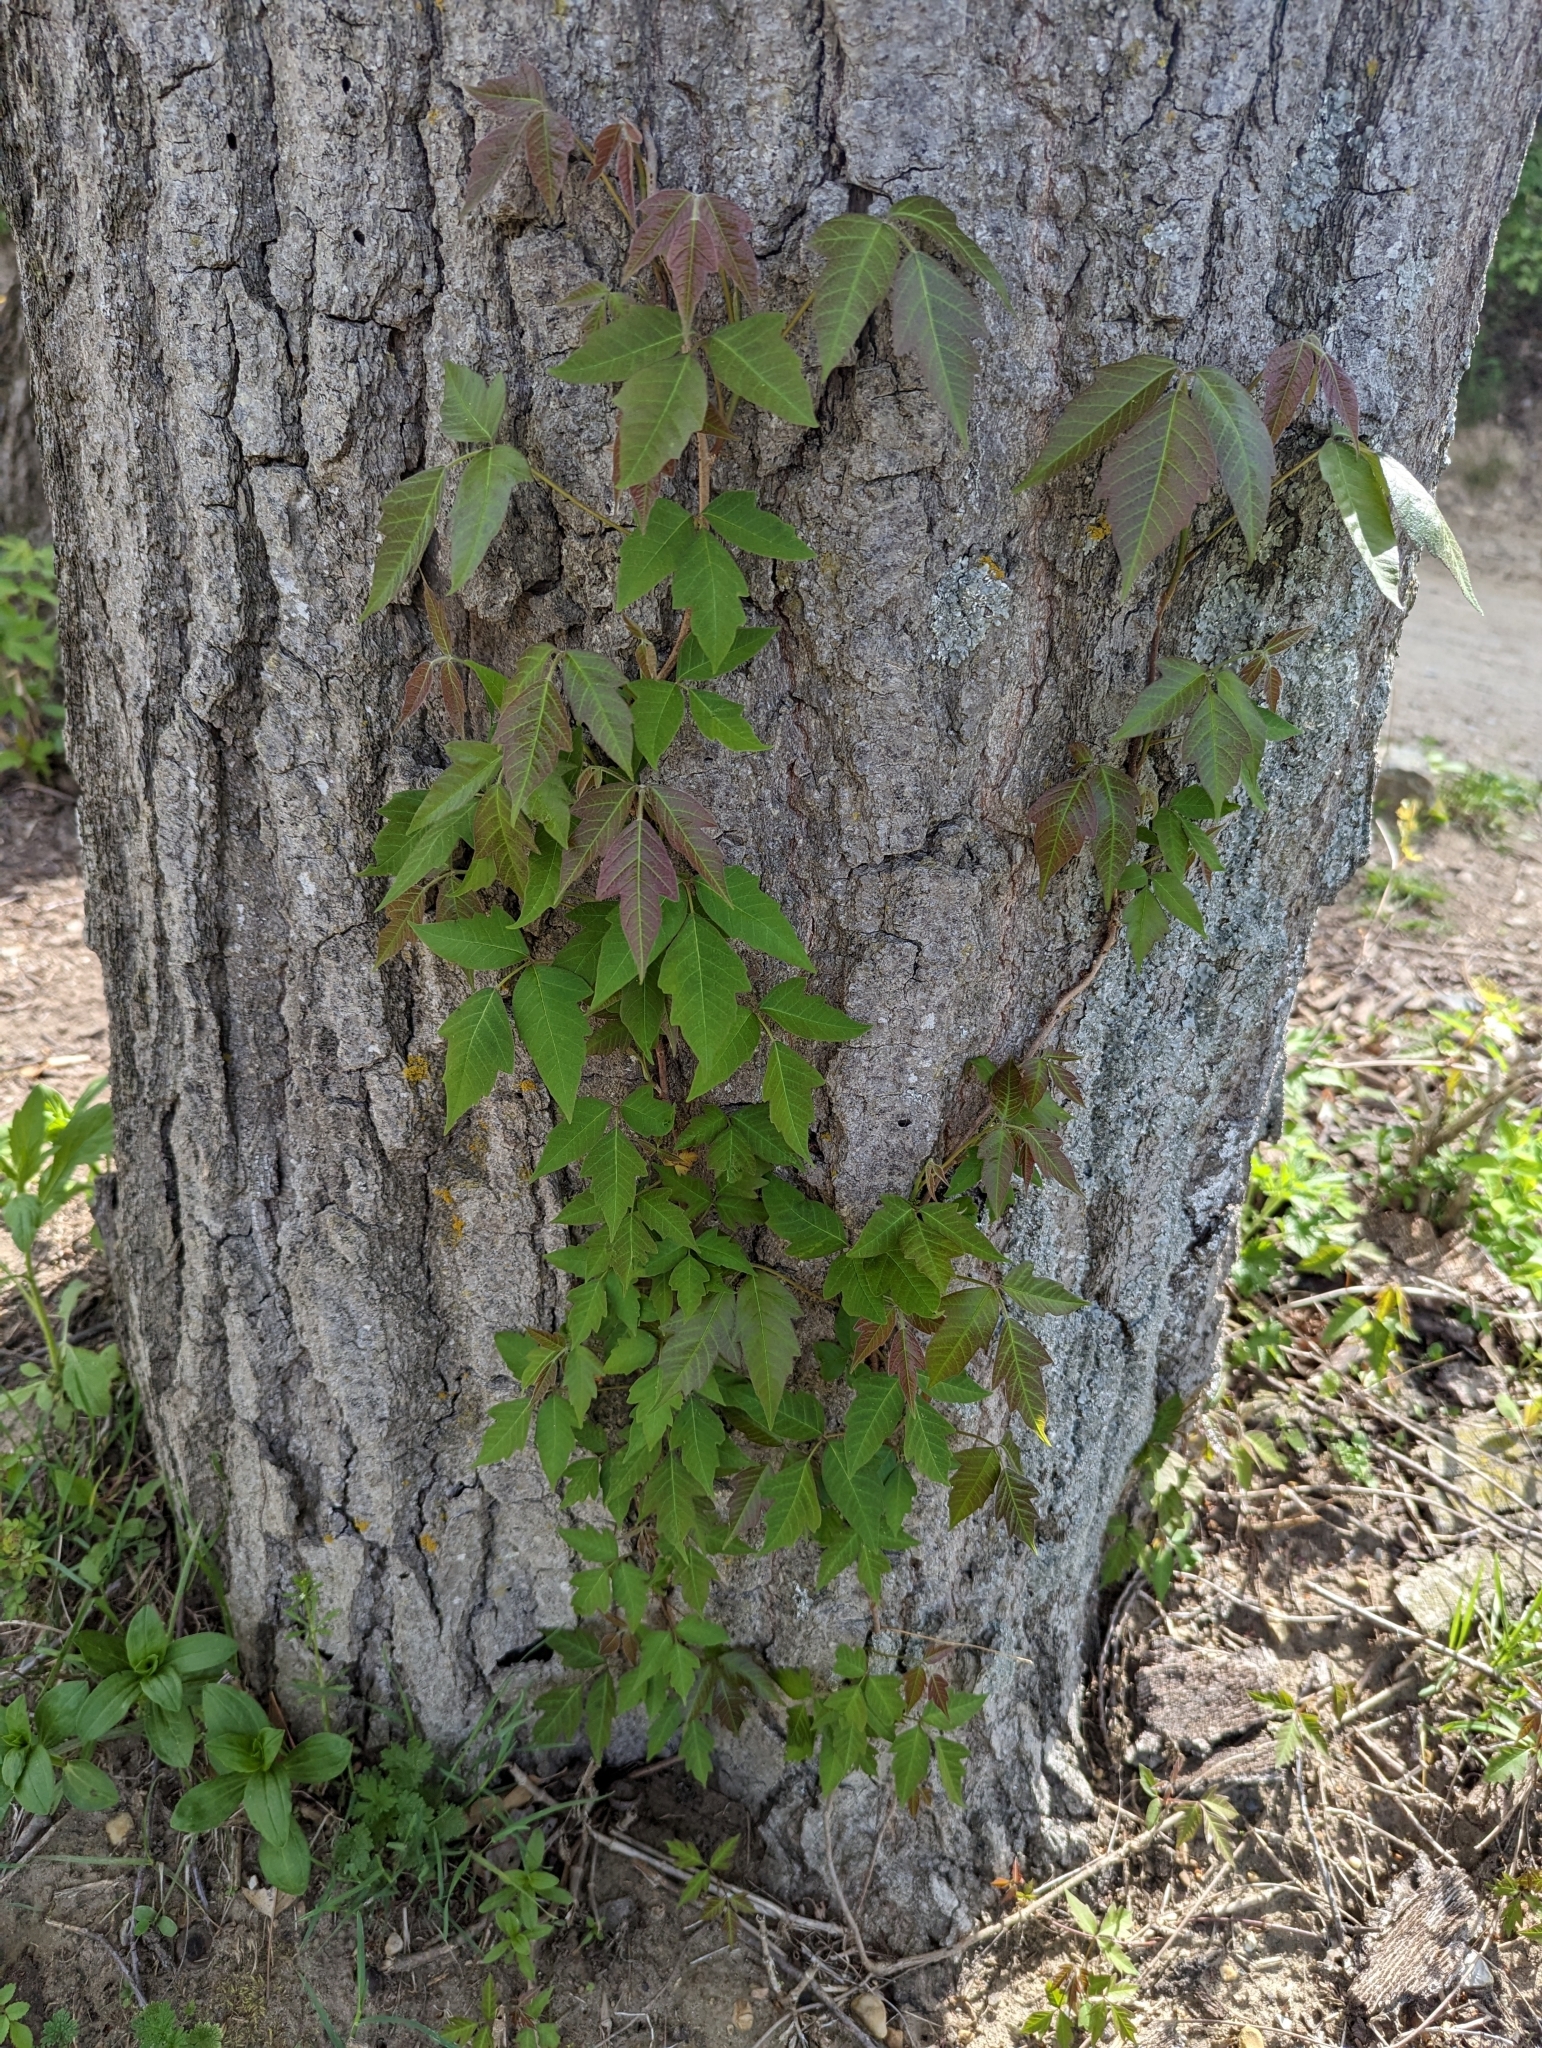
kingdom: Plantae
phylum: Tracheophyta
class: Magnoliopsida
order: Sapindales
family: Anacardiaceae
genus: Toxicodendron
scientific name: Toxicodendron radicans
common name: Poison ivy
